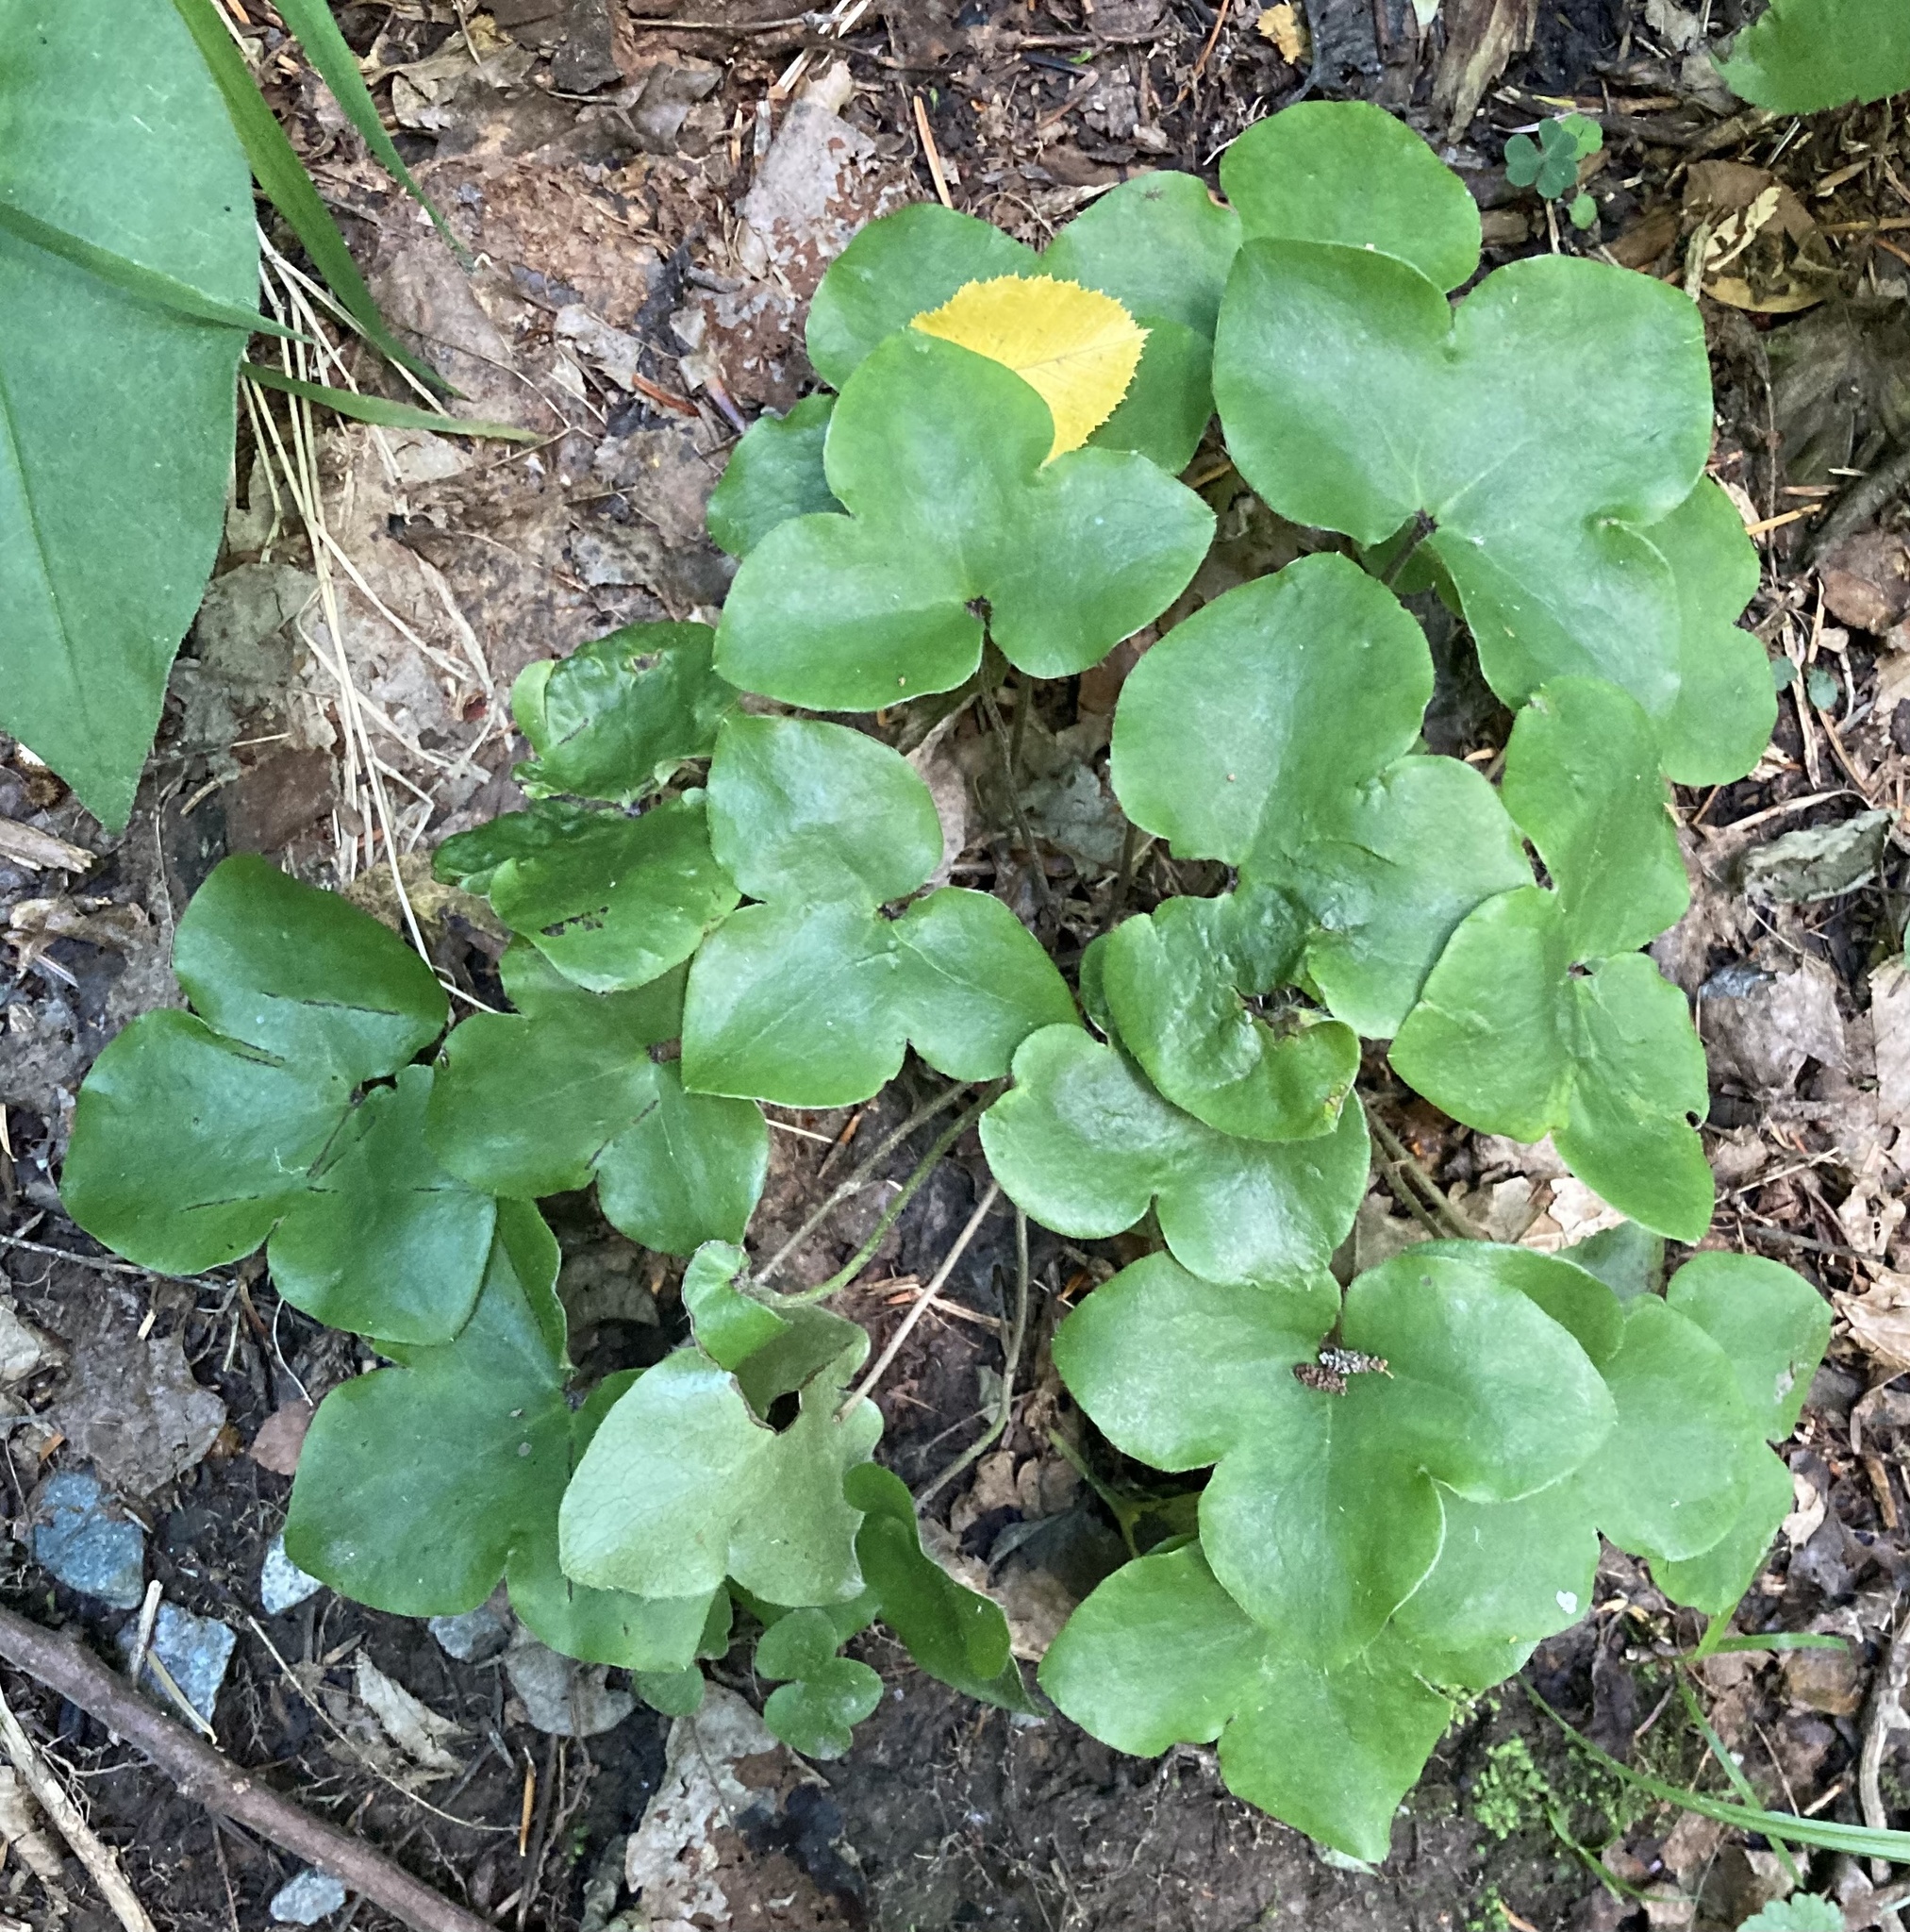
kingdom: Plantae
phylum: Tracheophyta
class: Magnoliopsida
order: Ranunculales
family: Ranunculaceae
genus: Hepatica
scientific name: Hepatica nobilis
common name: Liverleaf
